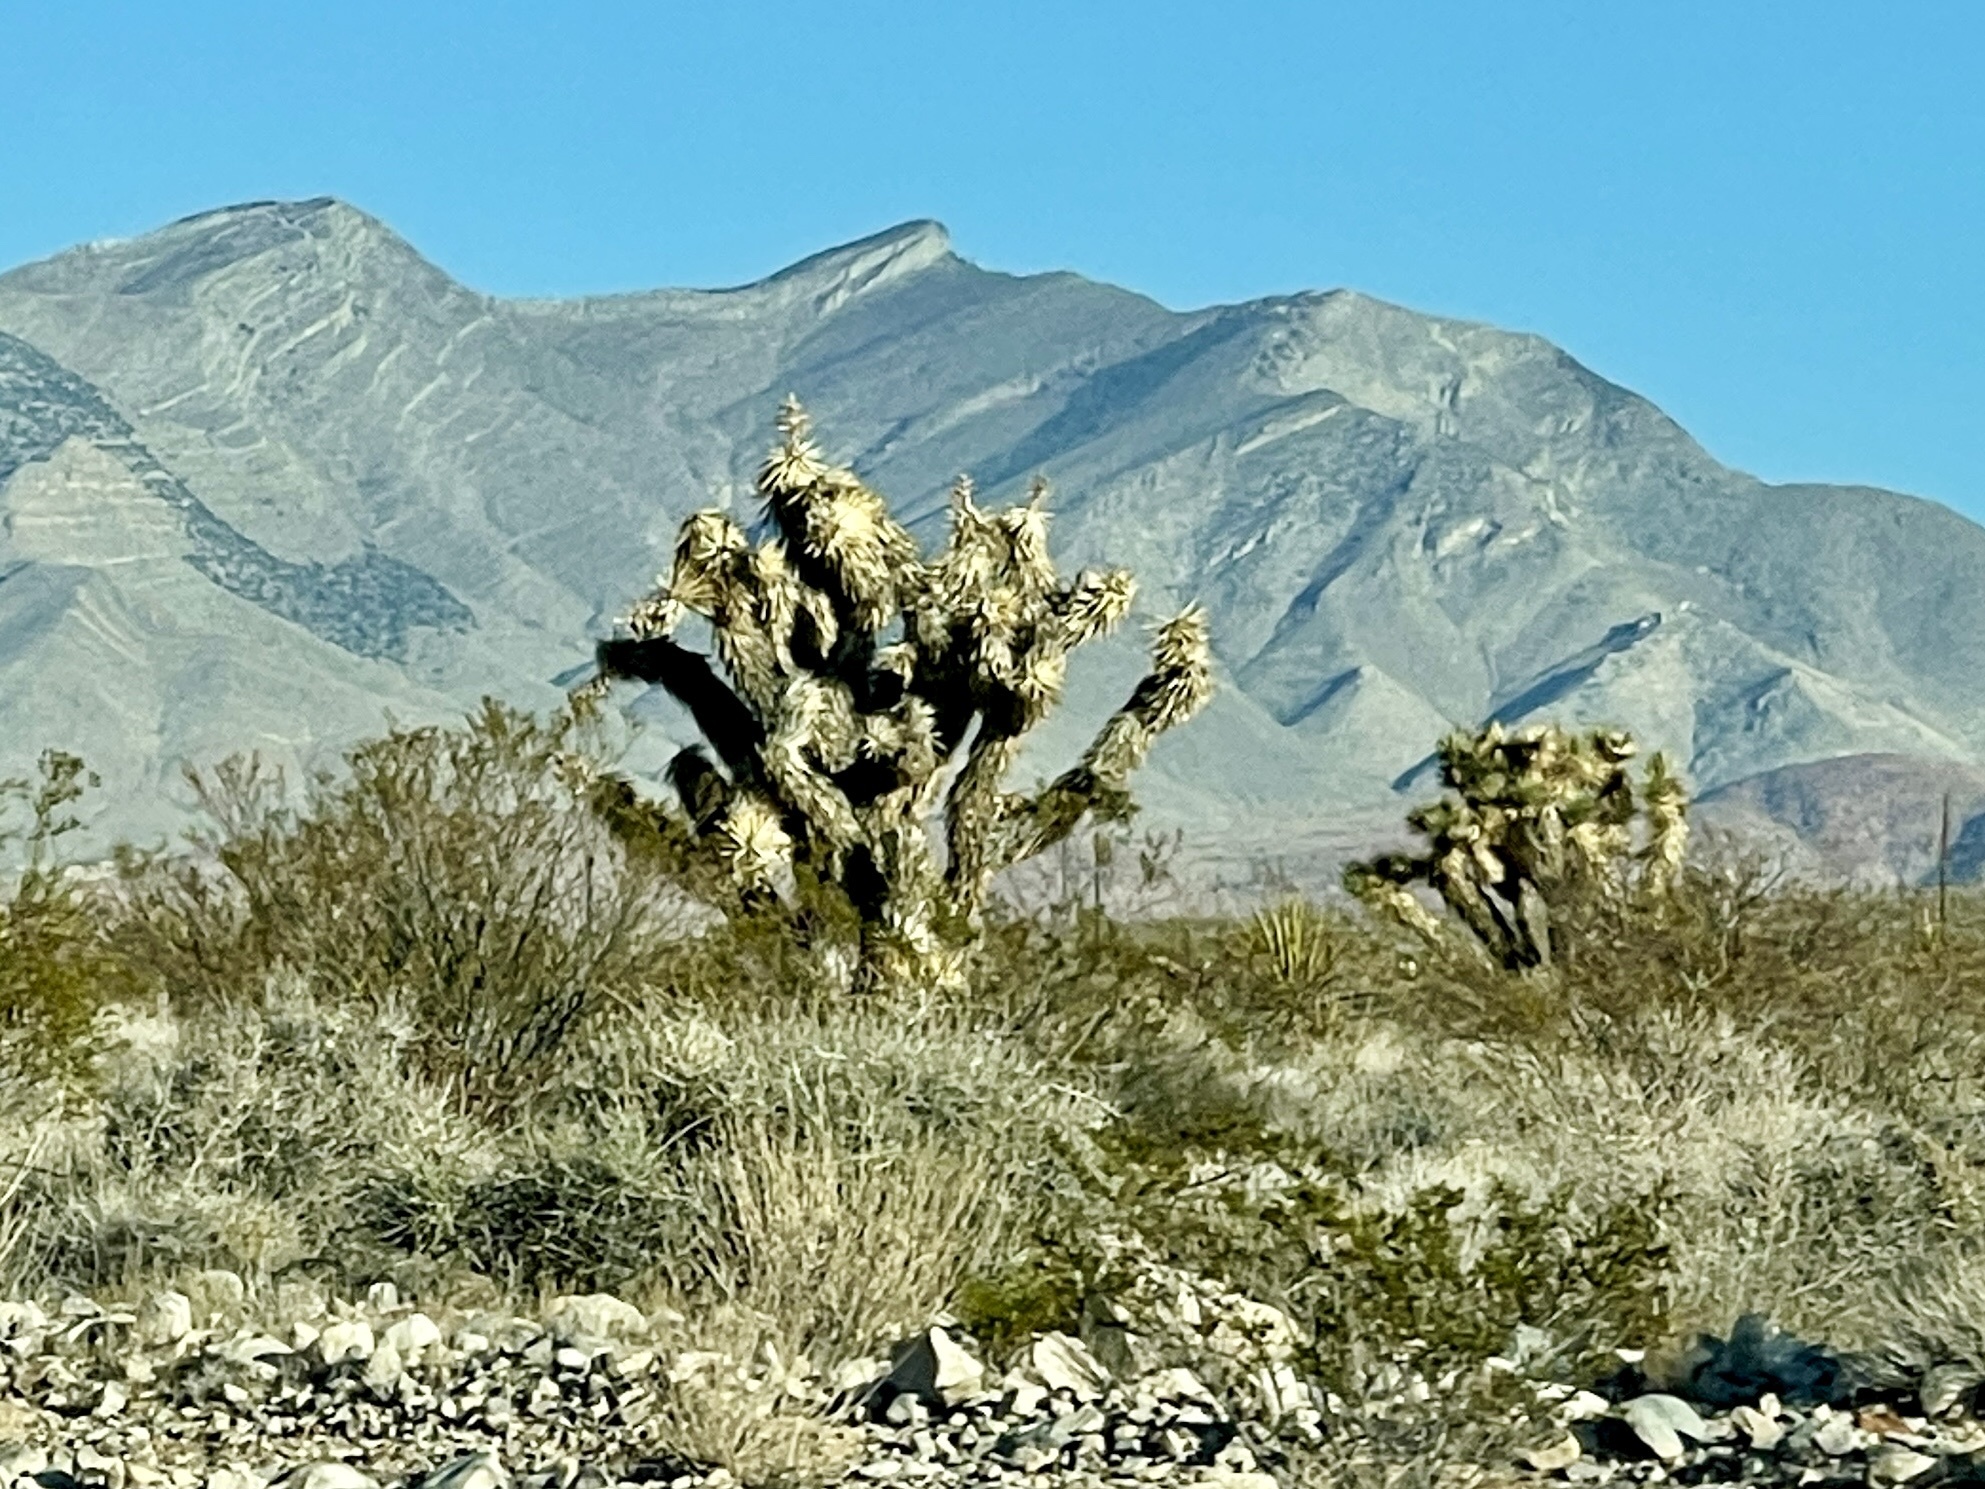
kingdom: Plantae
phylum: Tracheophyta
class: Liliopsida
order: Asparagales
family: Asparagaceae
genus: Yucca
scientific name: Yucca brevifolia
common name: Joshua tree
